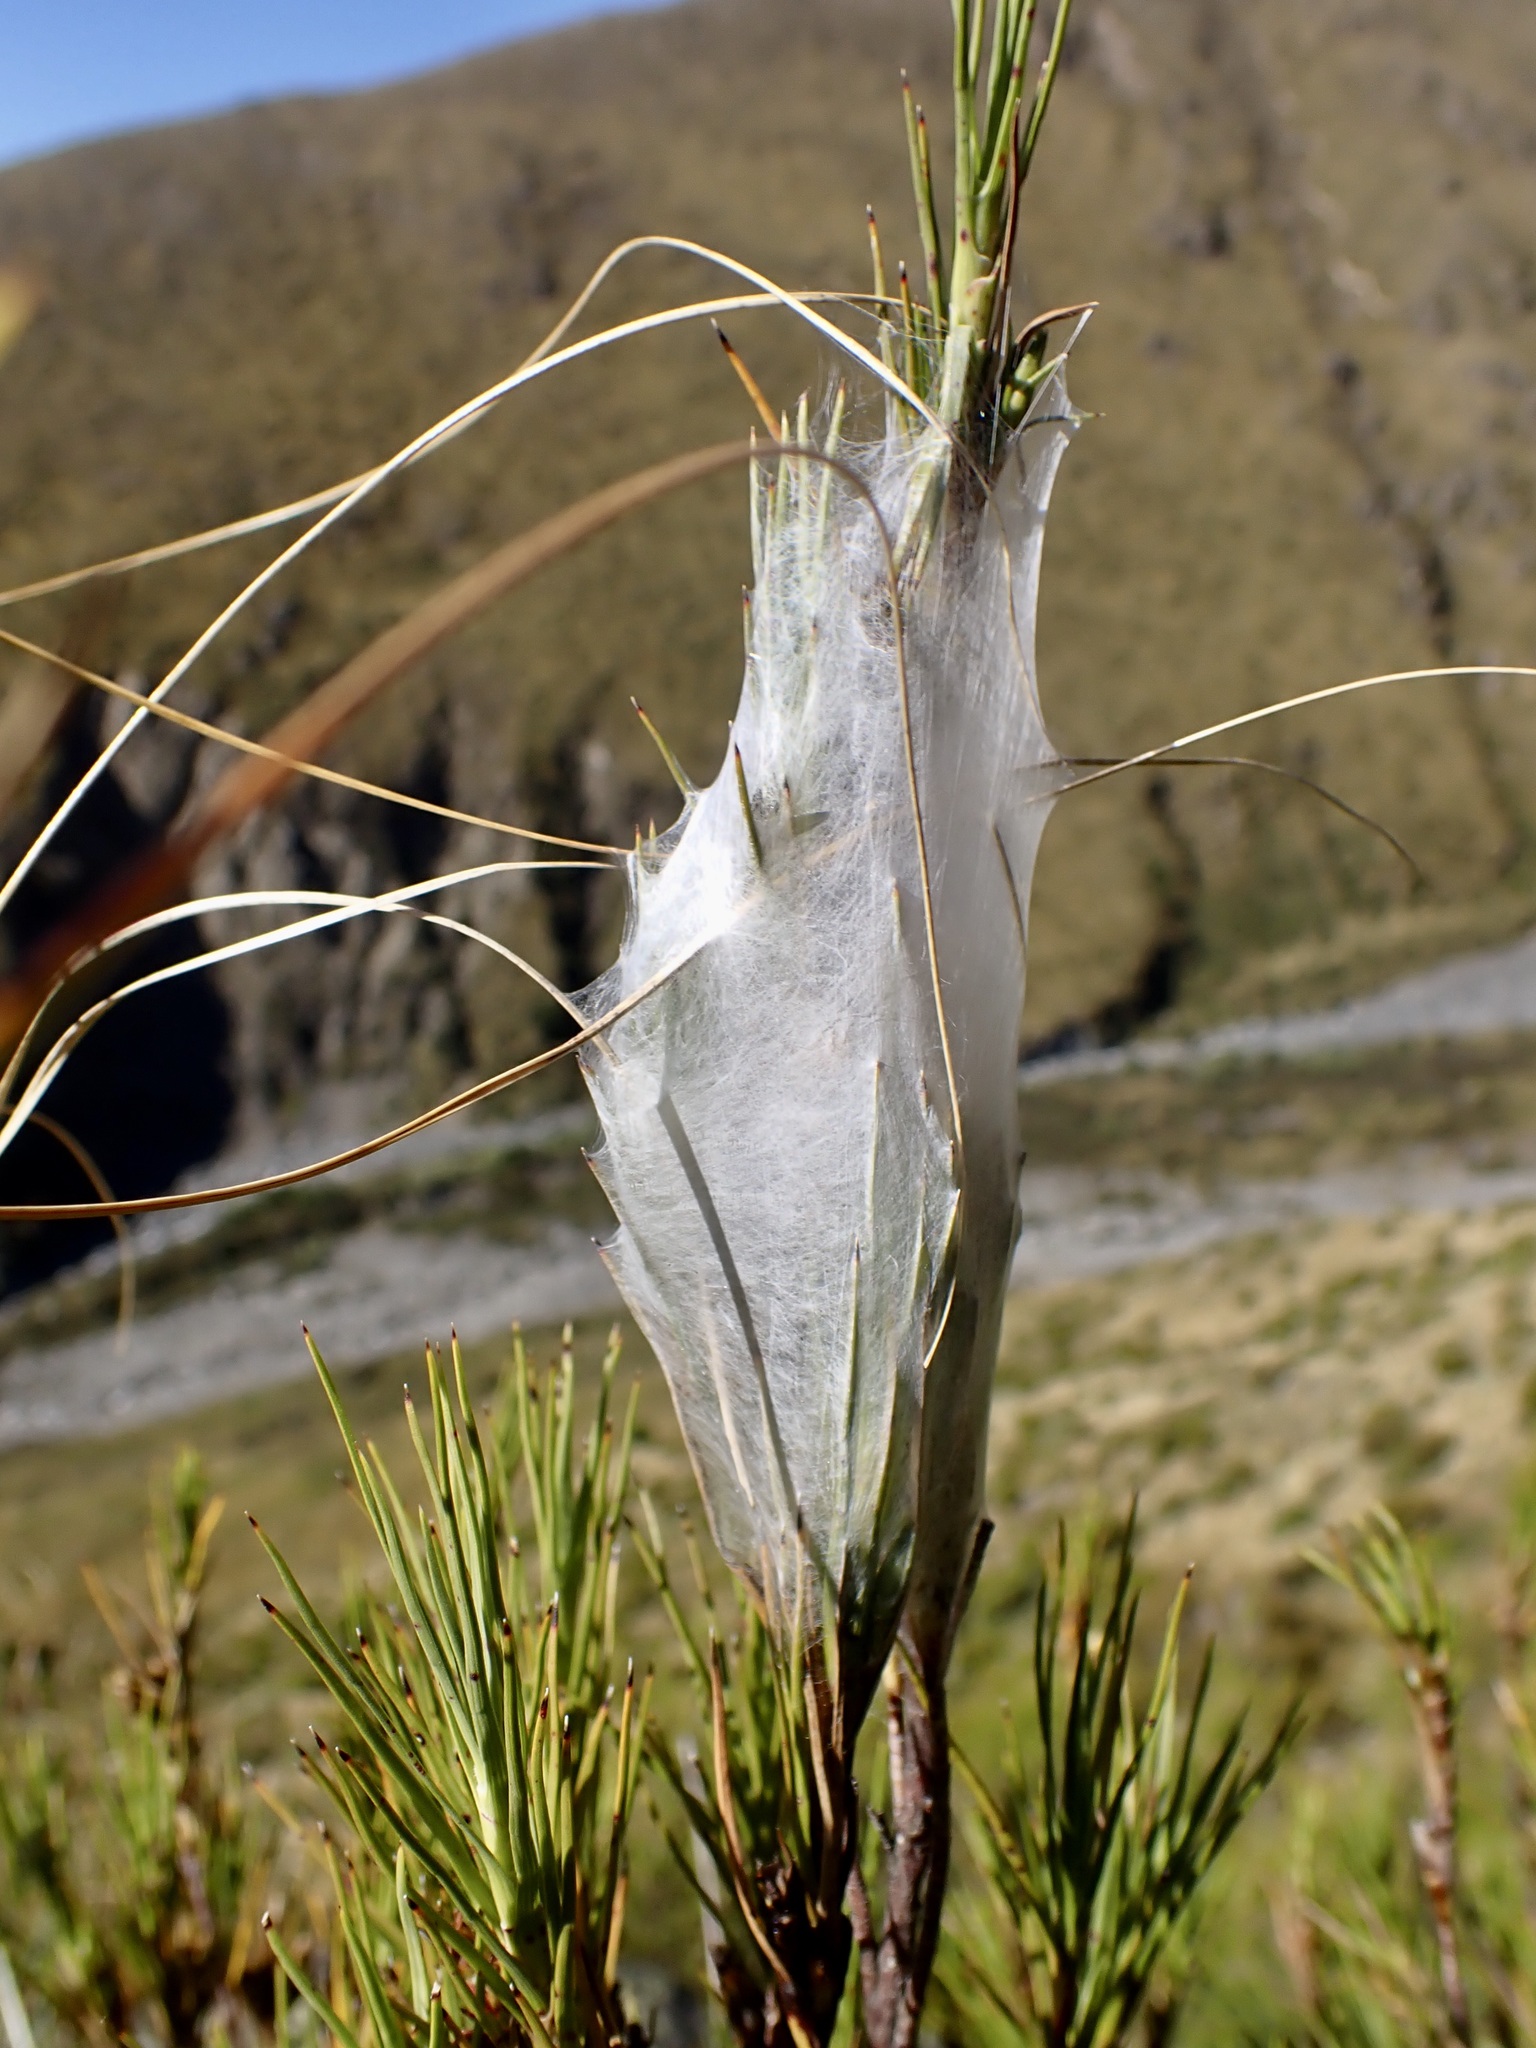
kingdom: Animalia
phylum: Arthropoda
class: Arachnida
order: Araneae
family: Pisauridae
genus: Dolomedes
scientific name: Dolomedes minor
